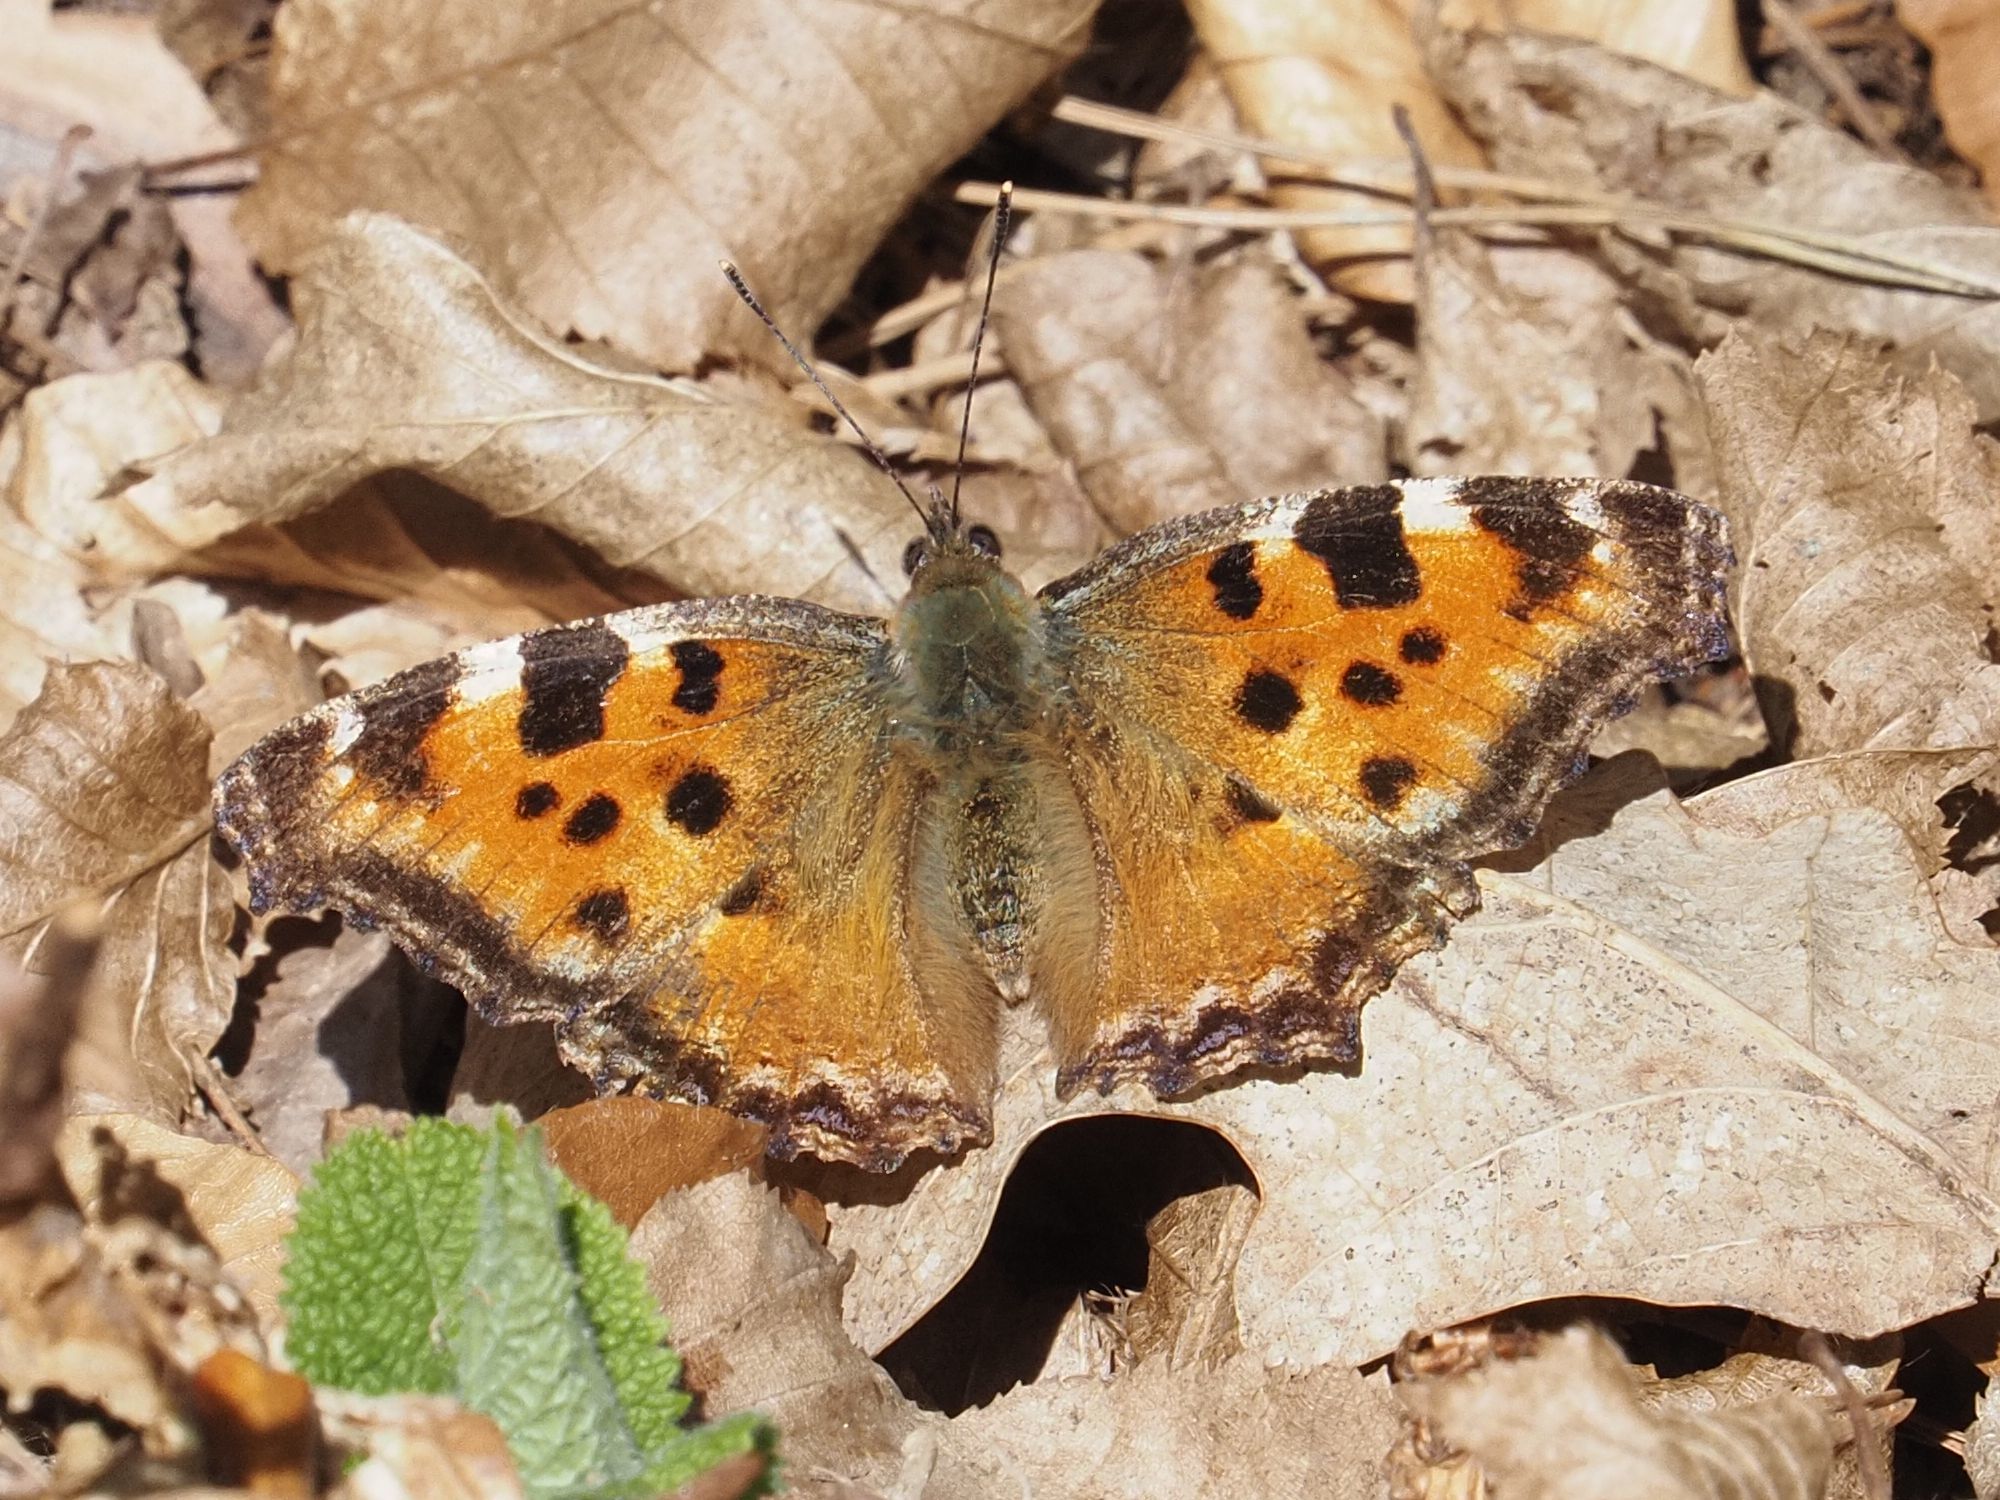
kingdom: Animalia
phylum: Arthropoda
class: Insecta
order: Lepidoptera
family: Nymphalidae
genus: Nymphalis
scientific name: Nymphalis polychloros
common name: Large tortoiseshell
